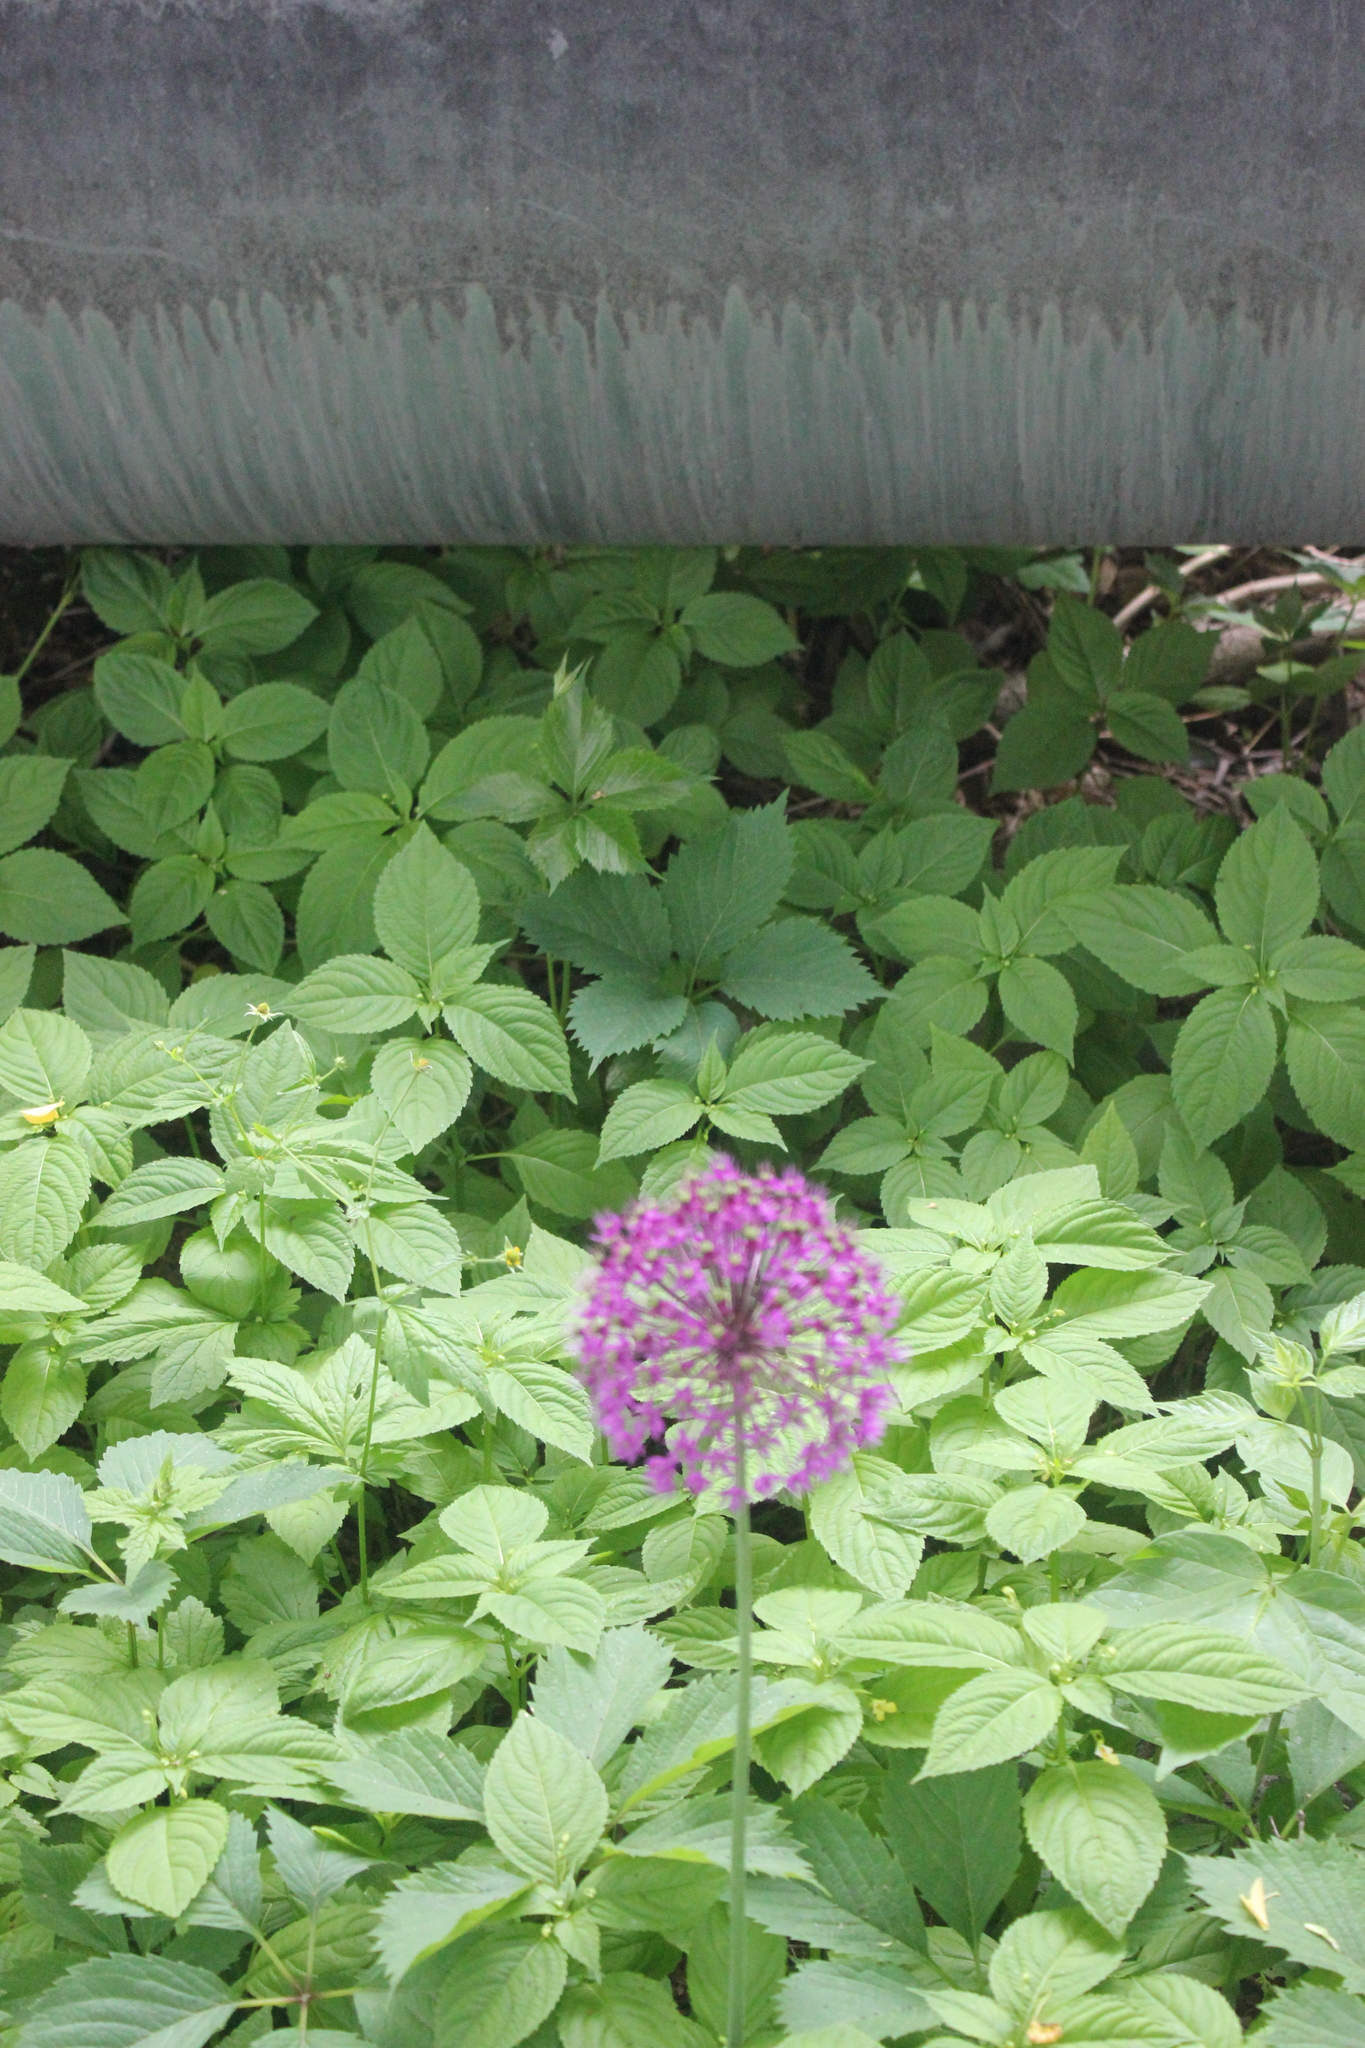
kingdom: Plantae
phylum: Tracheophyta
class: Liliopsida
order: Asparagales
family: Amaryllidaceae
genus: Allium
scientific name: Allium rosenorum
